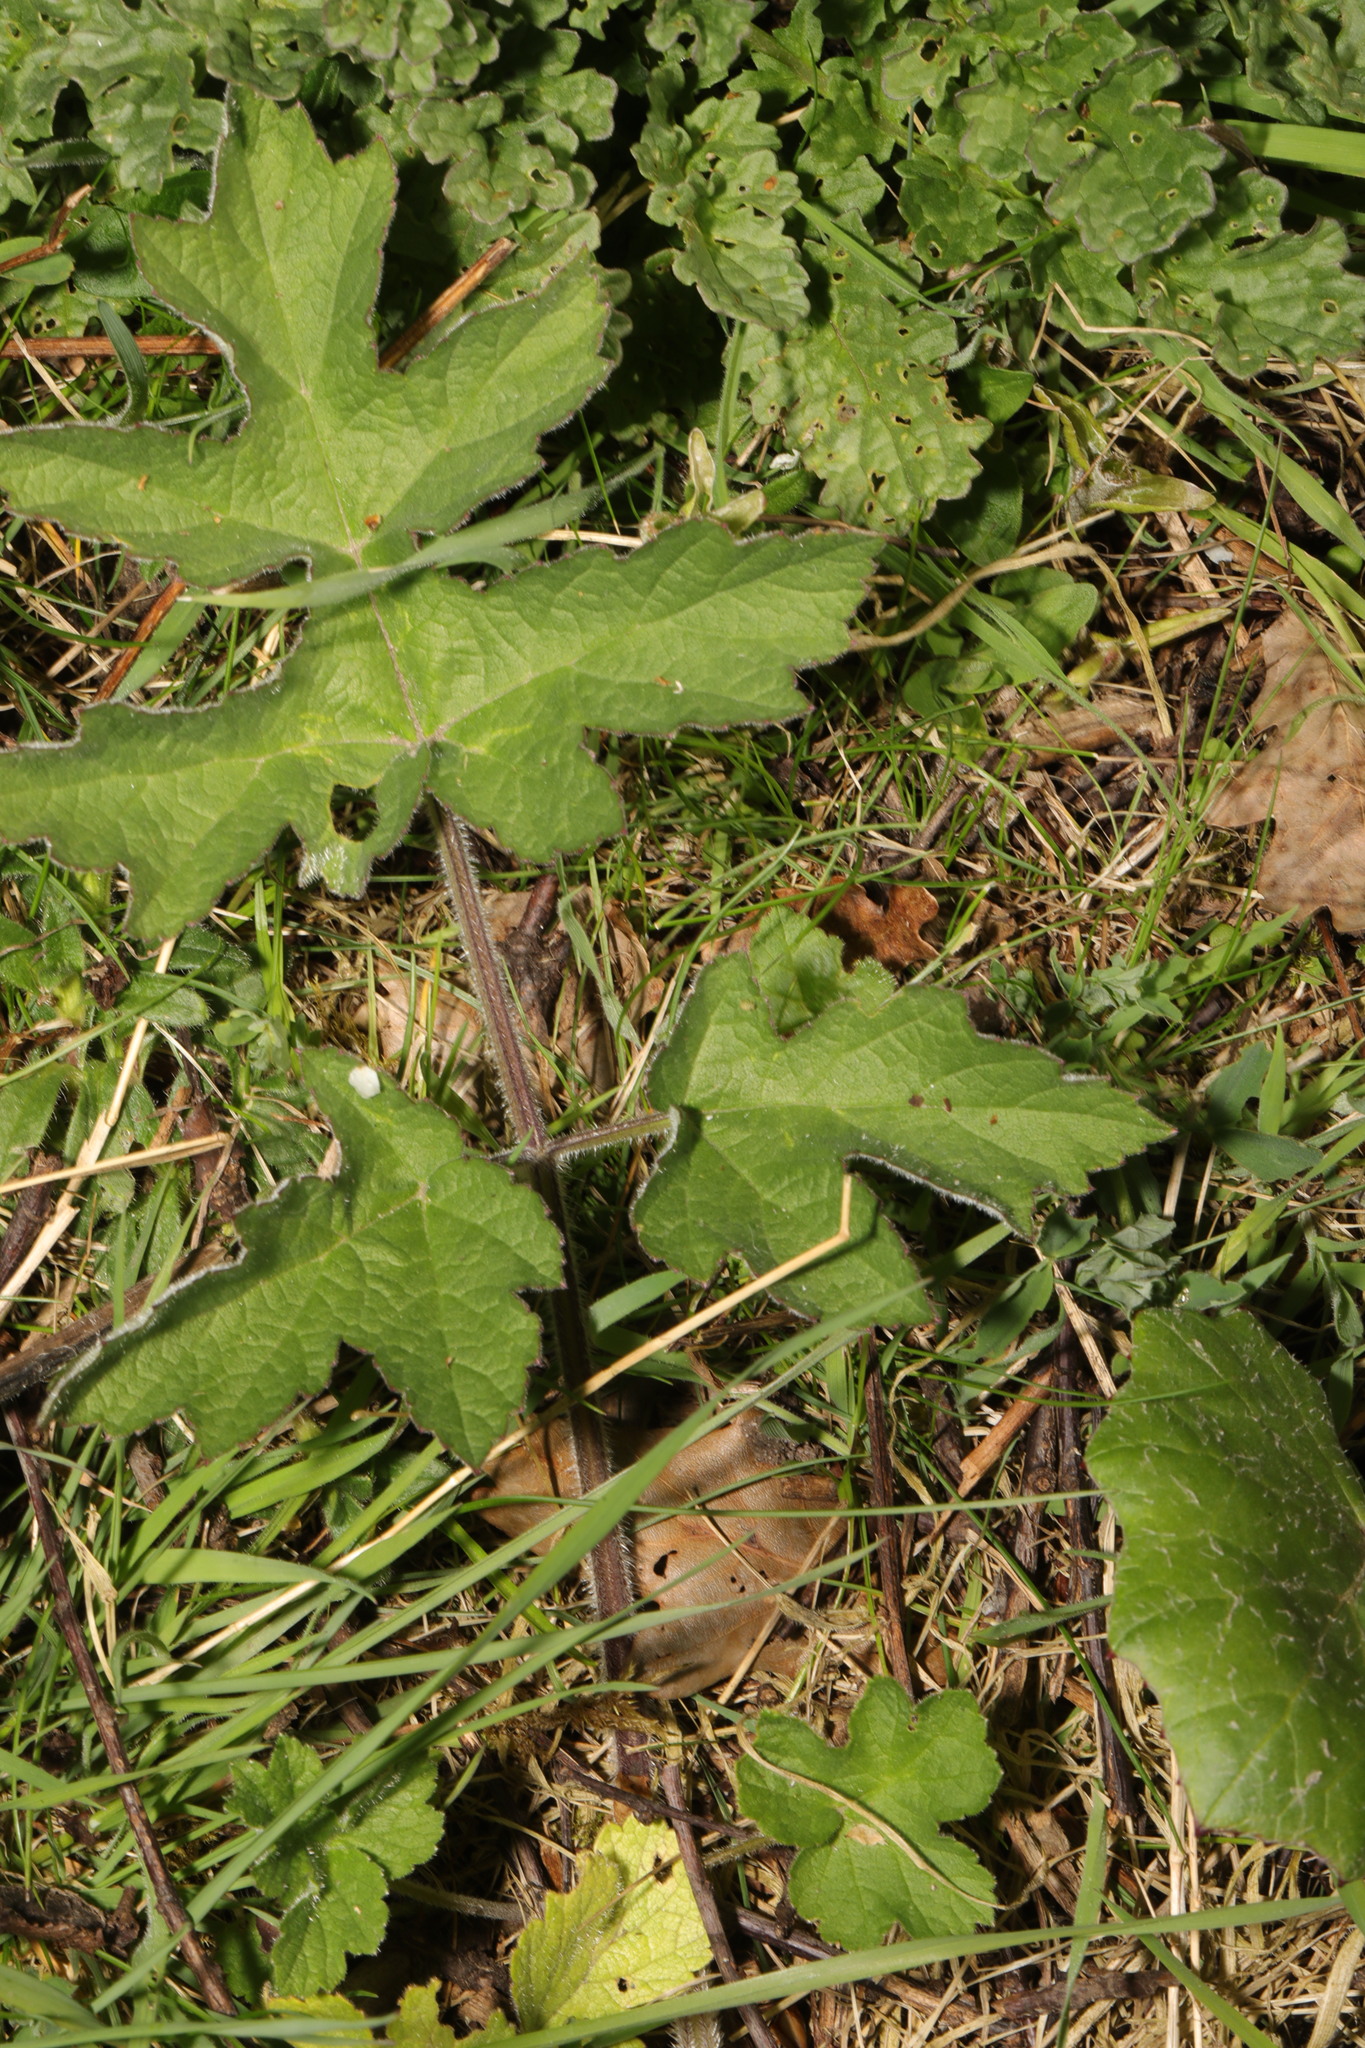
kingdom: Plantae
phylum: Tracheophyta
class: Magnoliopsida
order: Apiales
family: Apiaceae
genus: Heracleum
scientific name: Heracleum sphondylium
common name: Hogweed
